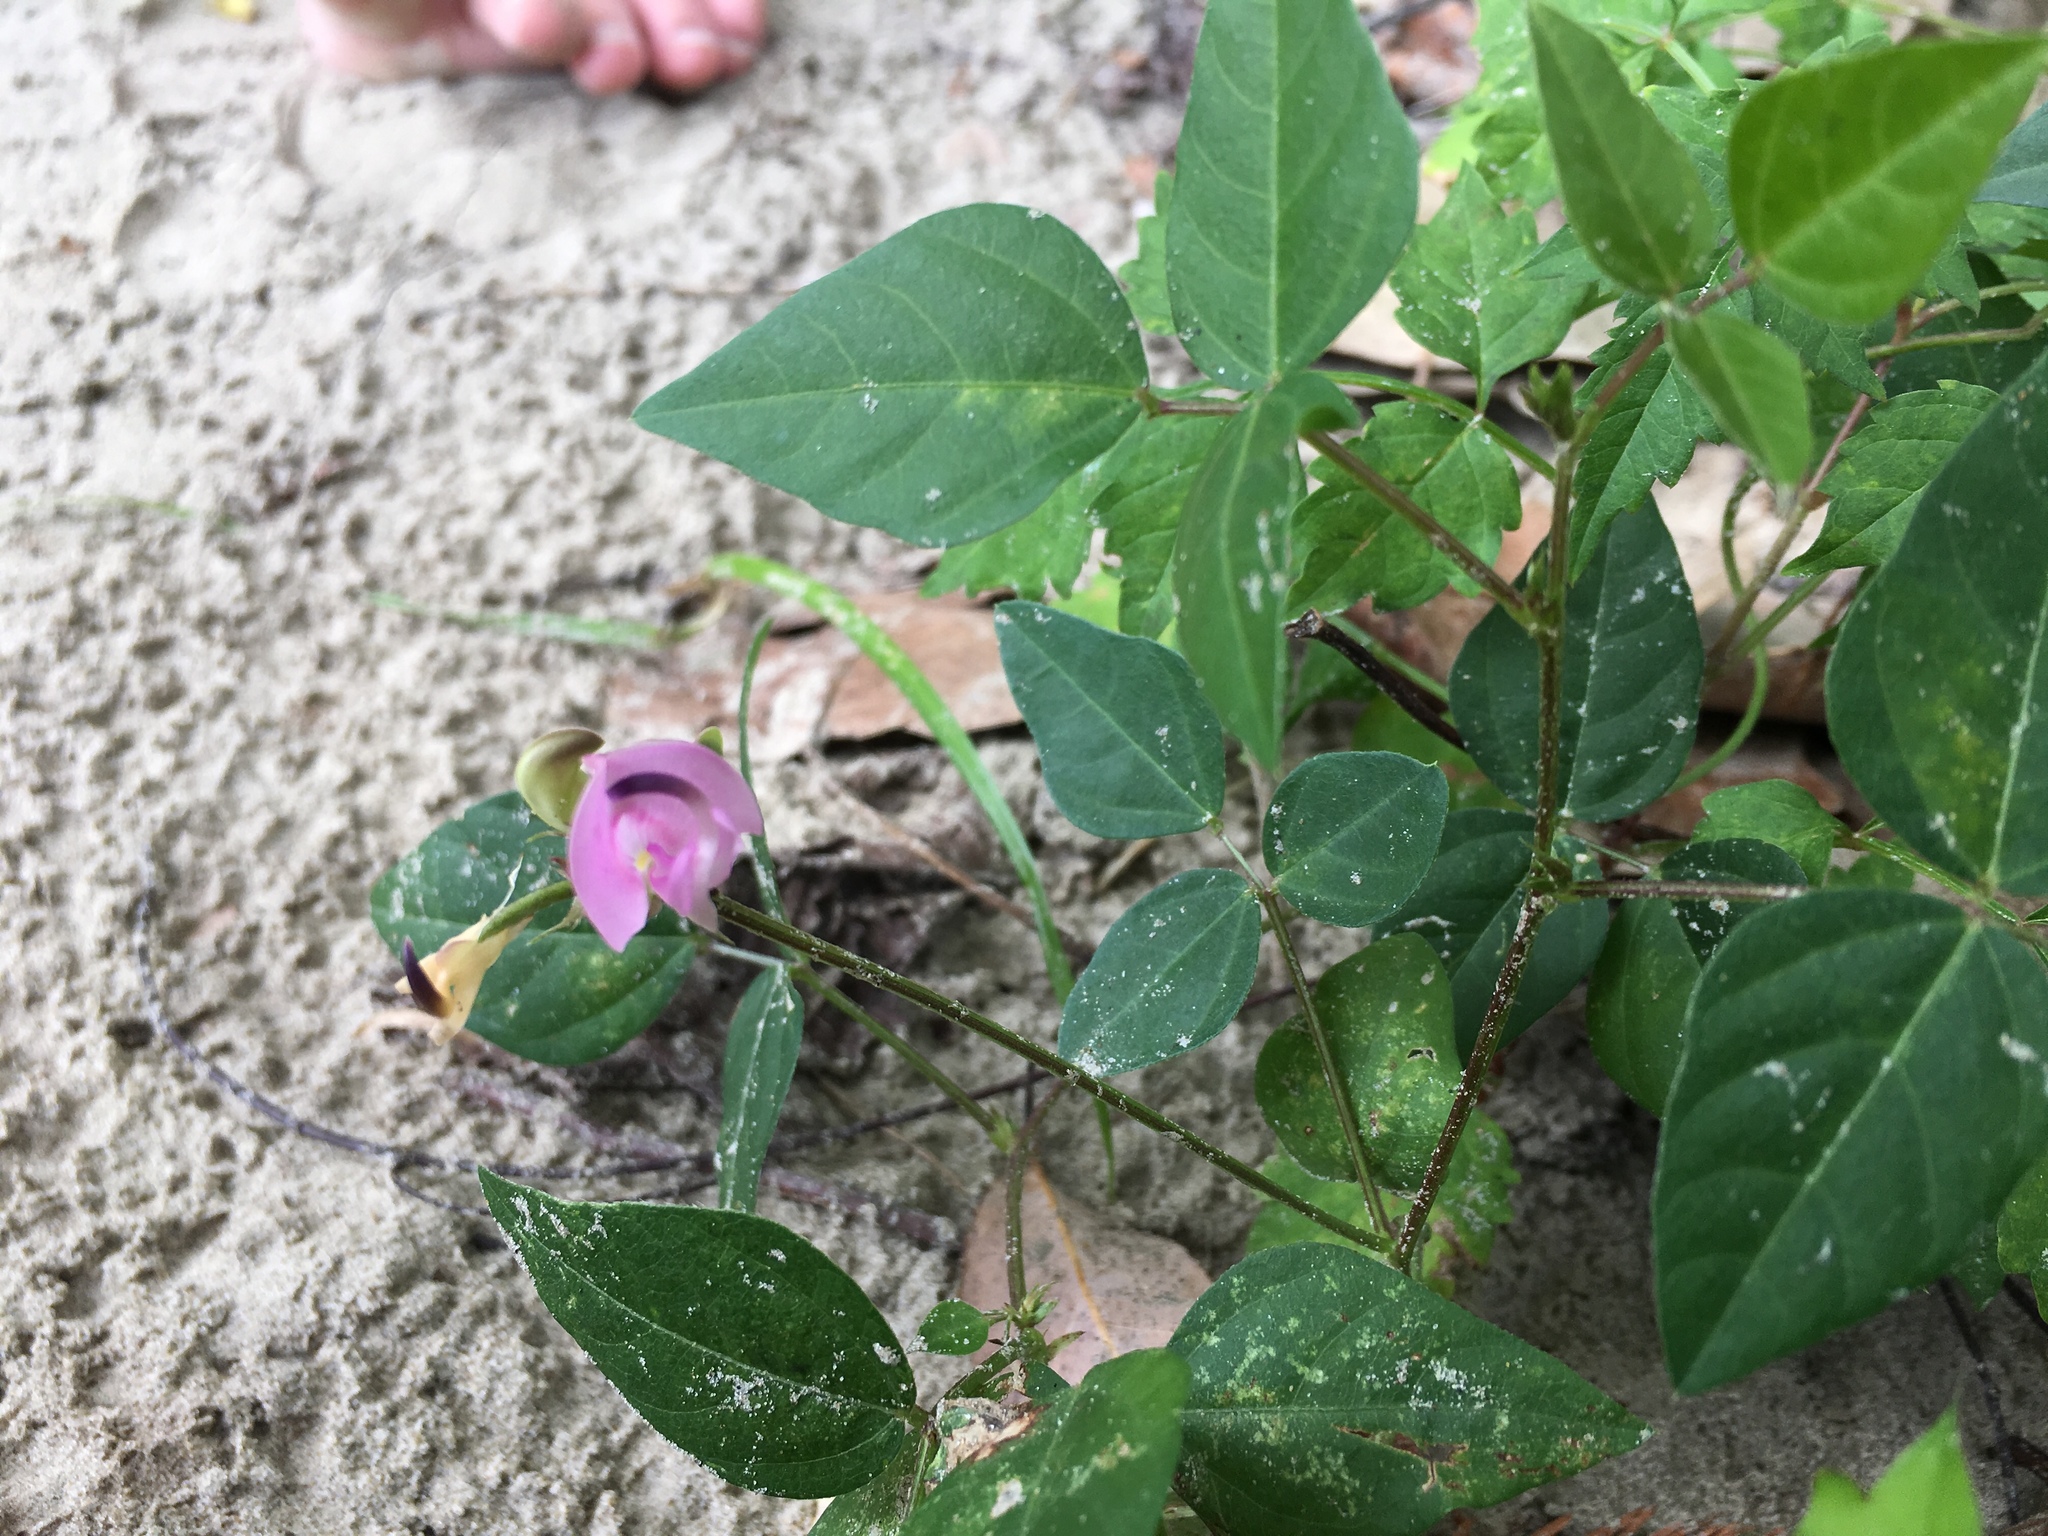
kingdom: Plantae
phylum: Tracheophyta
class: Magnoliopsida
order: Fabales
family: Fabaceae
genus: Strophostyles
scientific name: Strophostyles helvola
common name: Trailing wild bean
